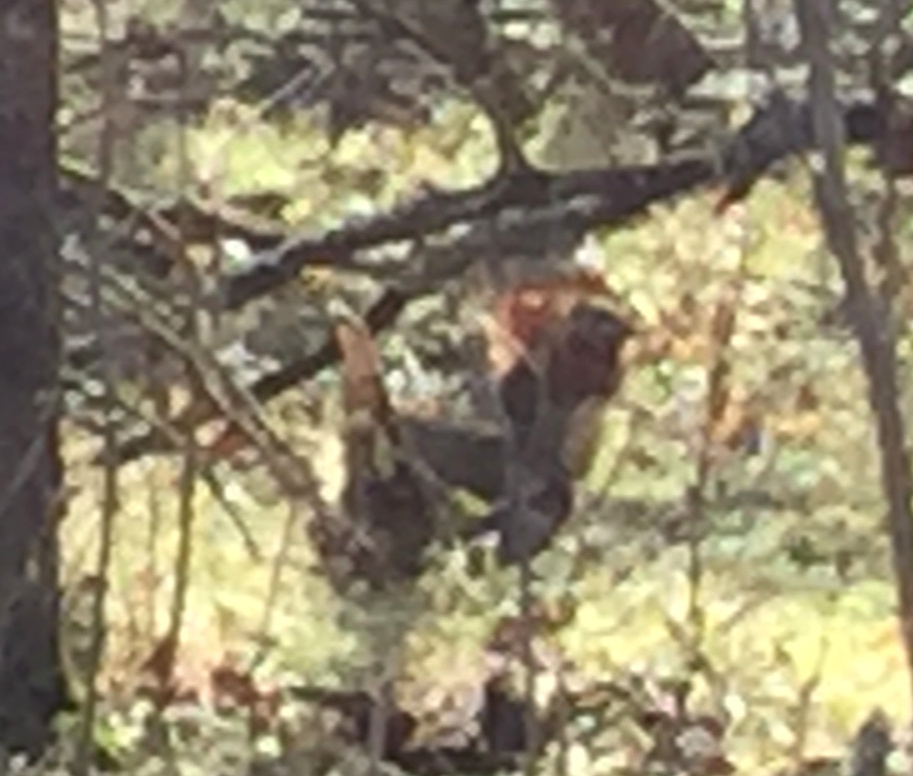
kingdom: Animalia
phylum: Chordata
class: Aves
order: Galliformes
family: Phasianidae
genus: Bonasa
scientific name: Bonasa umbellus
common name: Ruffed grouse
